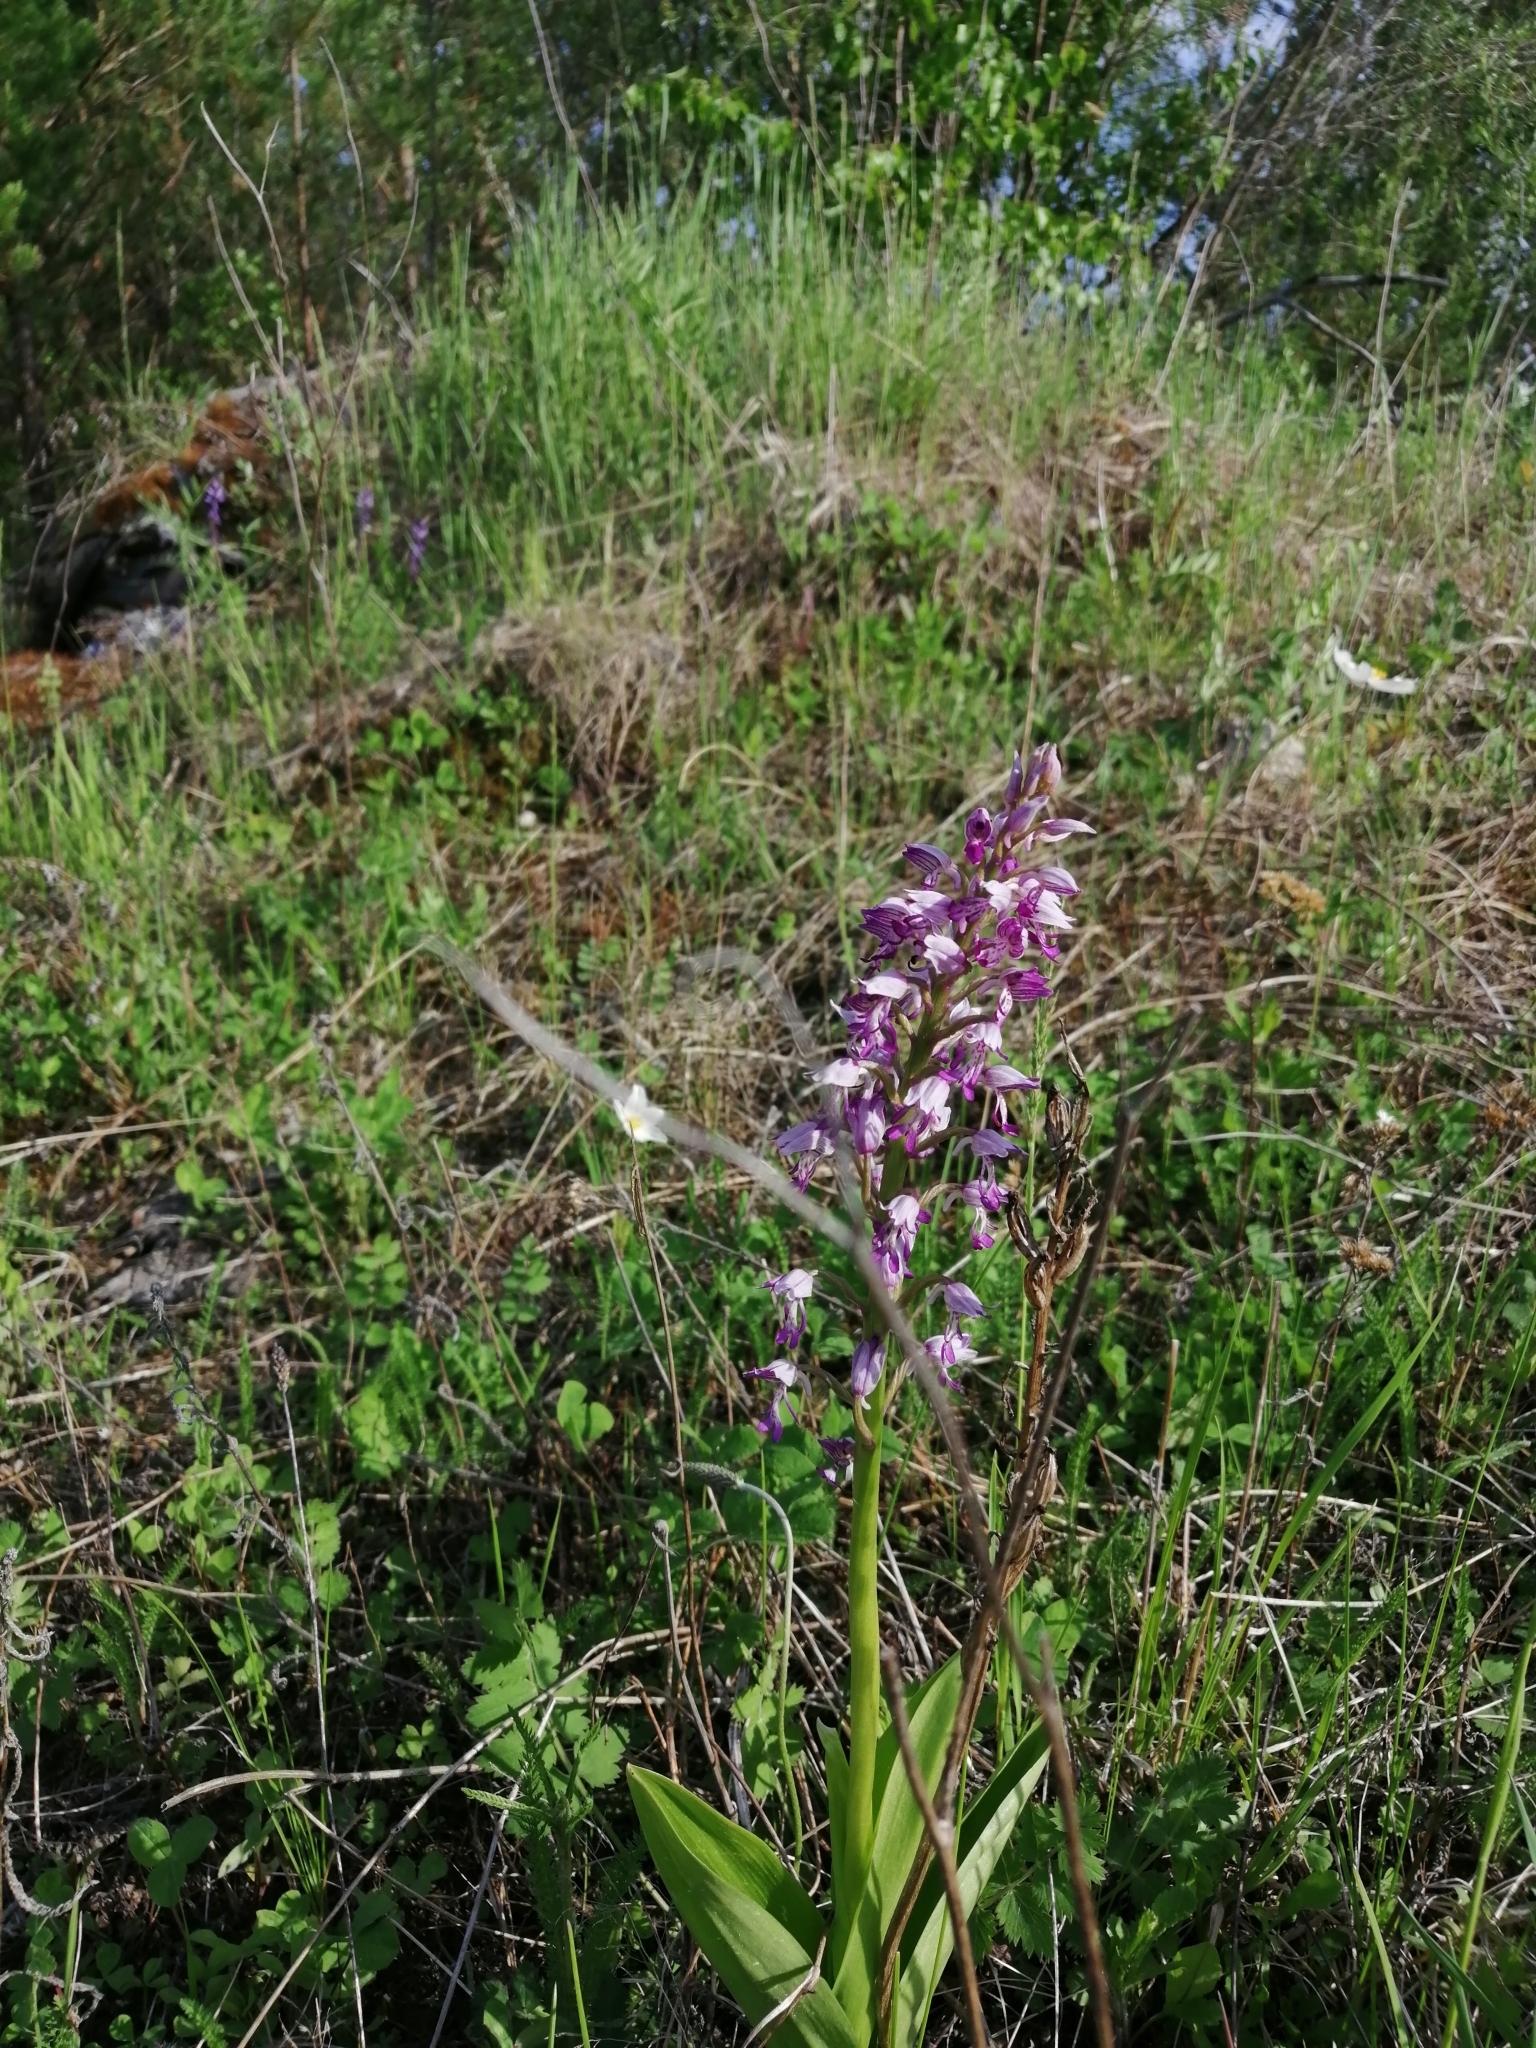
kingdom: Plantae
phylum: Tracheophyta
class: Liliopsida
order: Asparagales
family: Orchidaceae
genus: Orchis
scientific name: Orchis militaris
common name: Military orchid
